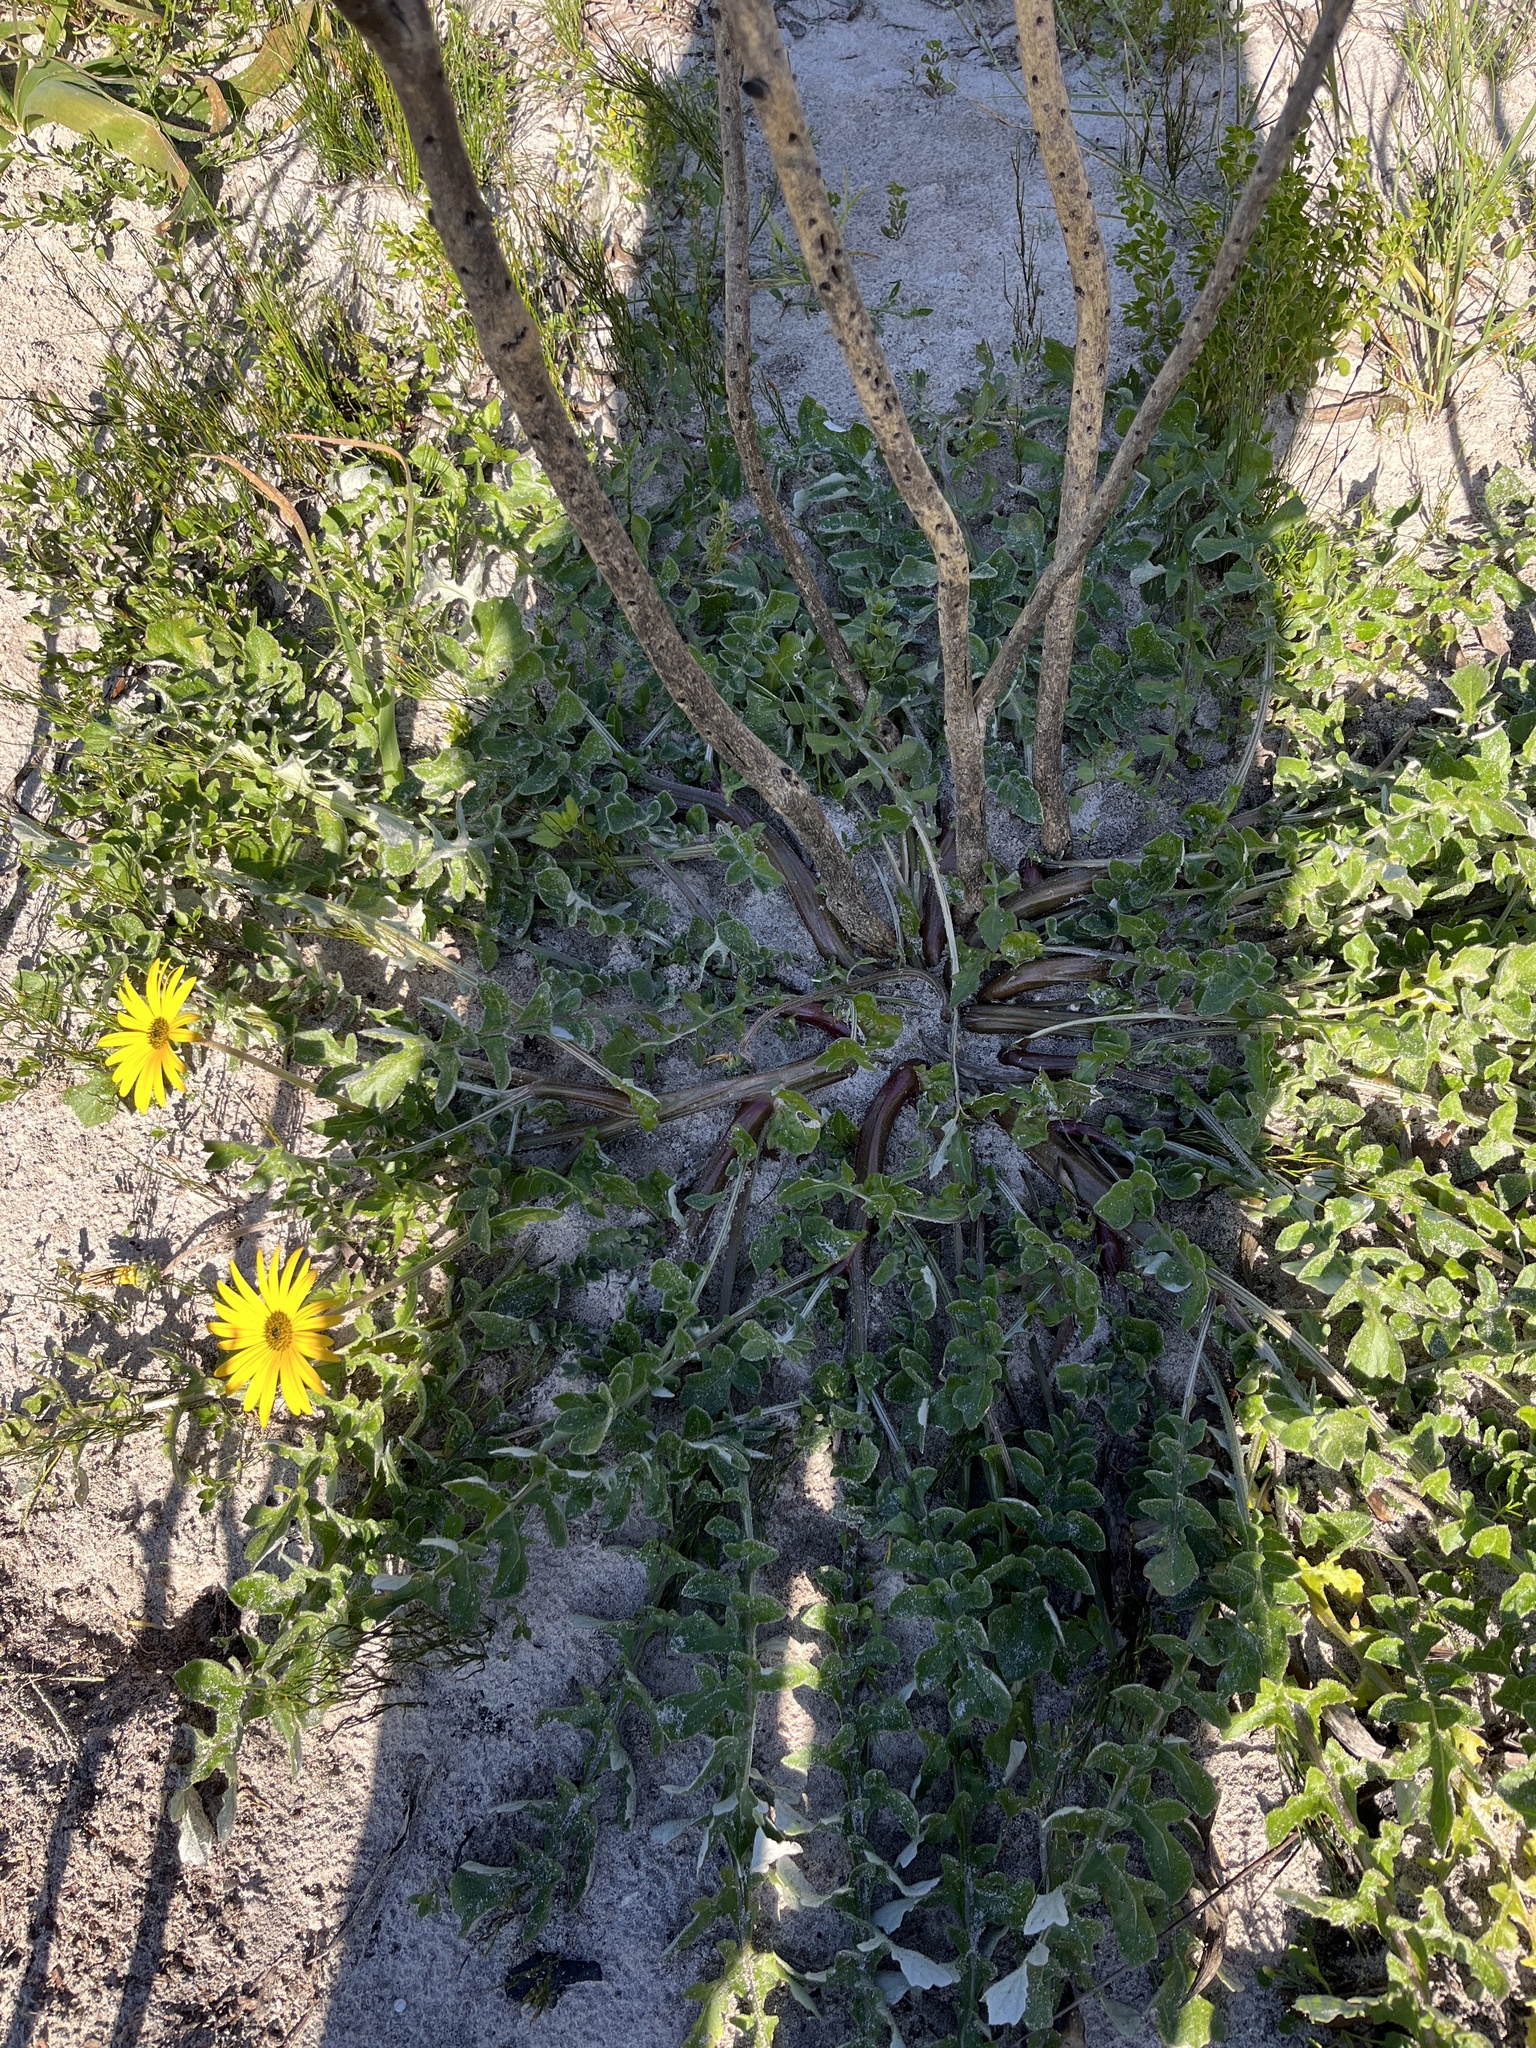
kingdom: Plantae
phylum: Tracheophyta
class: Magnoliopsida
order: Asterales
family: Asteraceae
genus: Arctotheca
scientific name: Arctotheca calendula
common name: Capeweed
